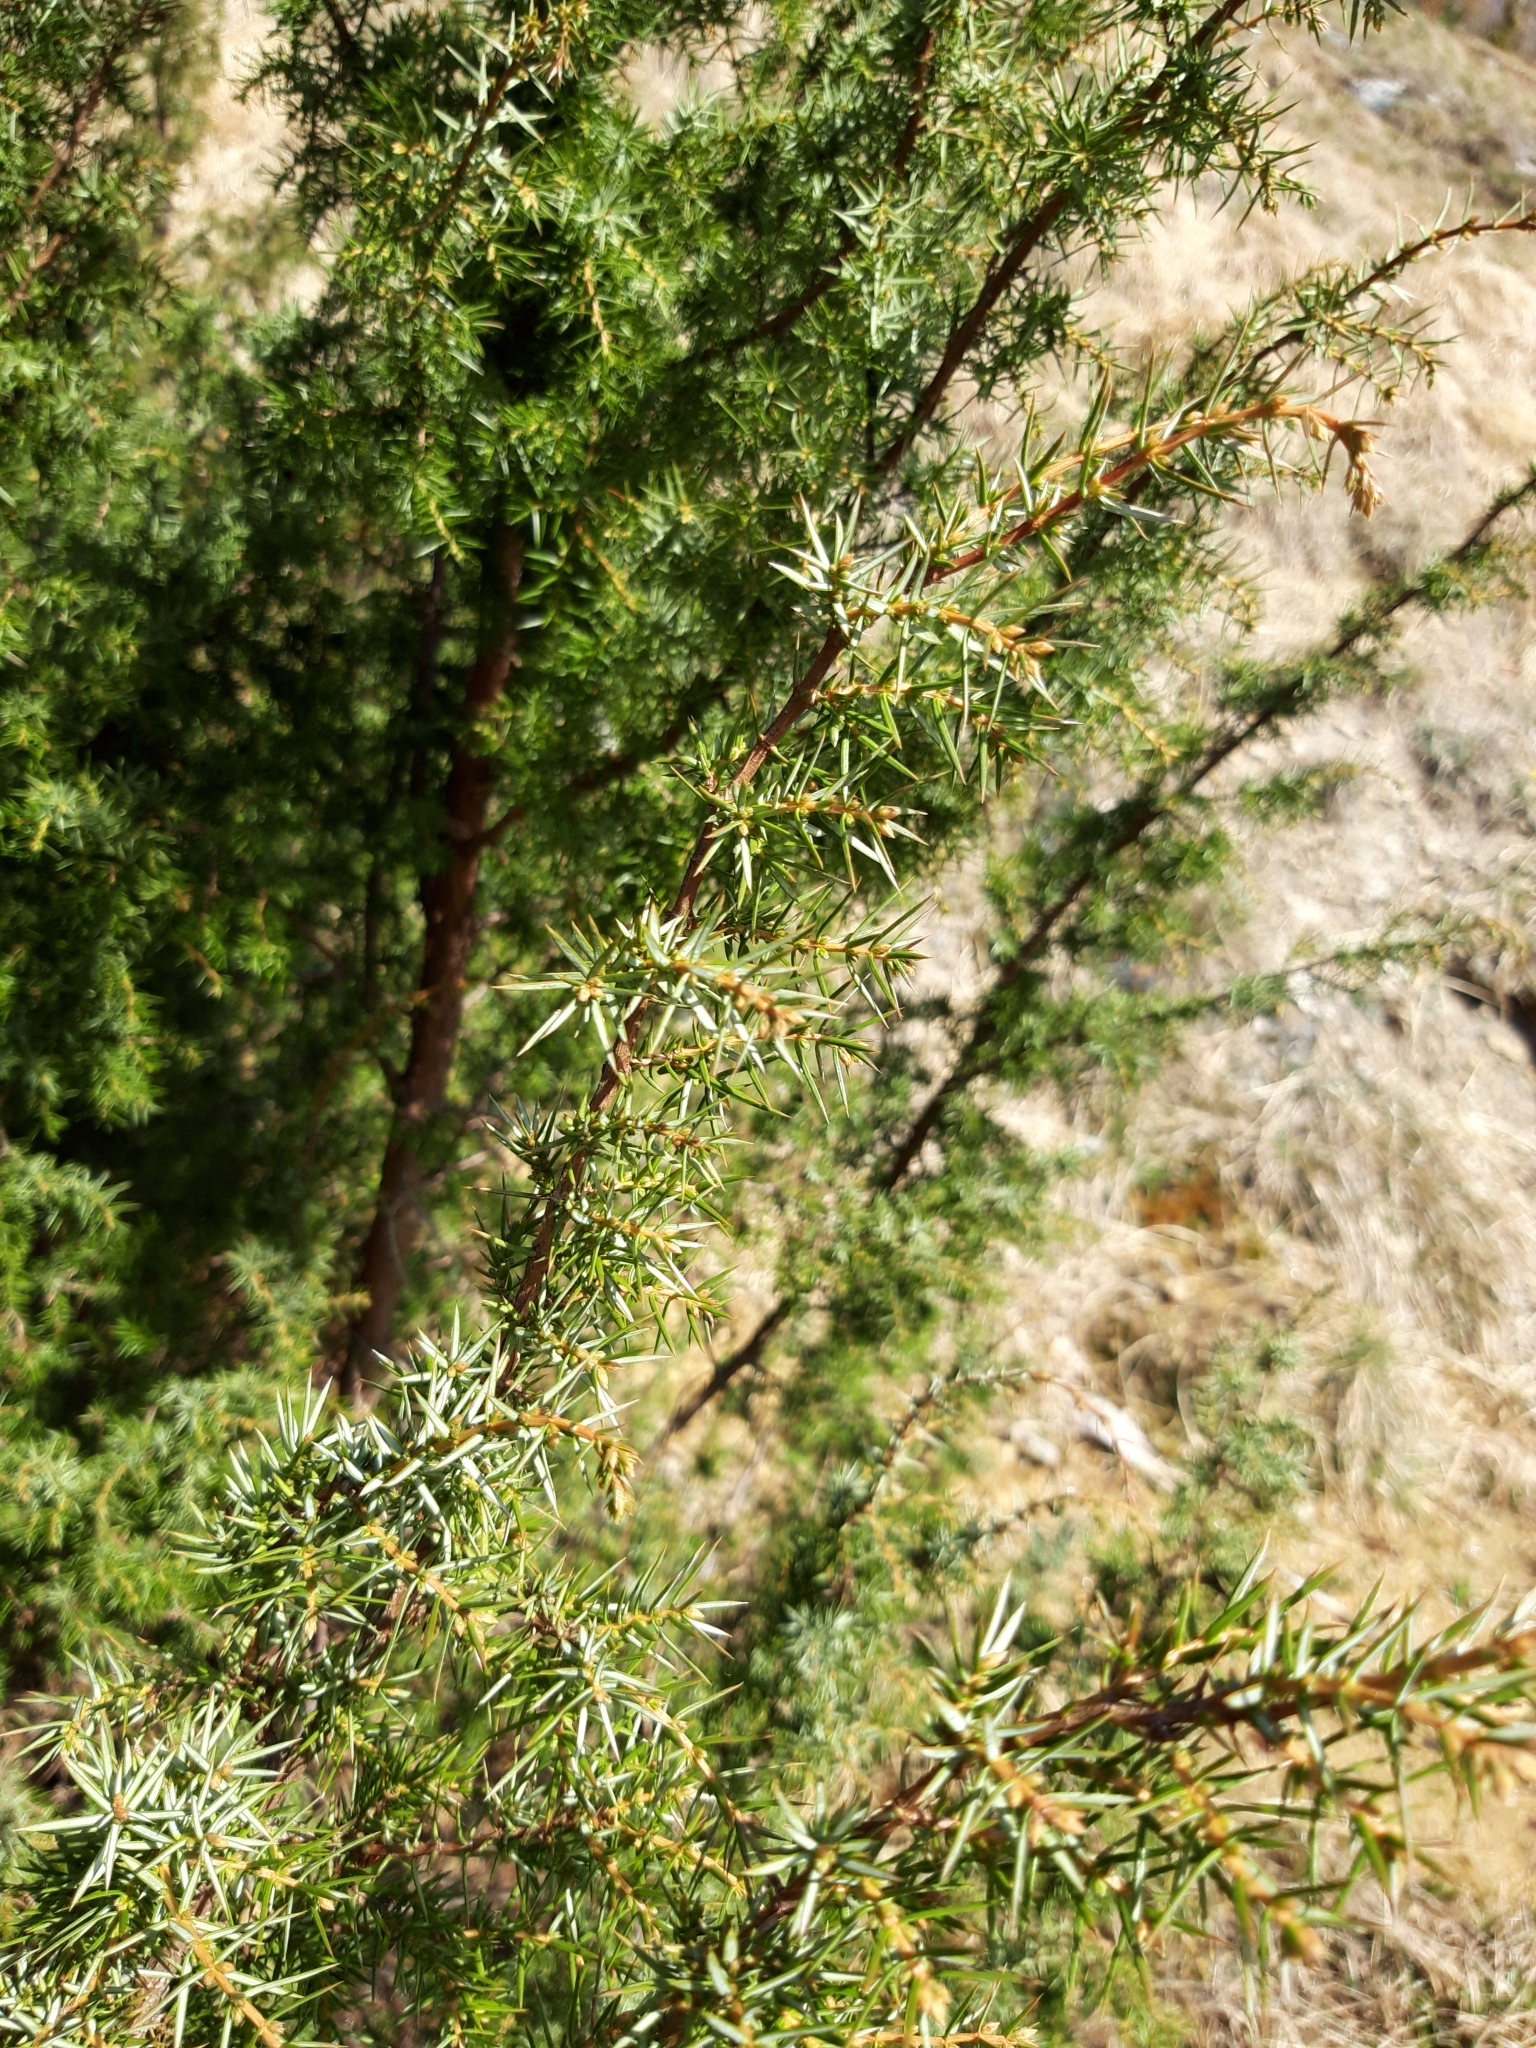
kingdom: Plantae
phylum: Tracheophyta
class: Pinopsida
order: Pinales
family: Cupressaceae
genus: Juniperus
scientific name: Juniperus communis
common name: Common juniper
